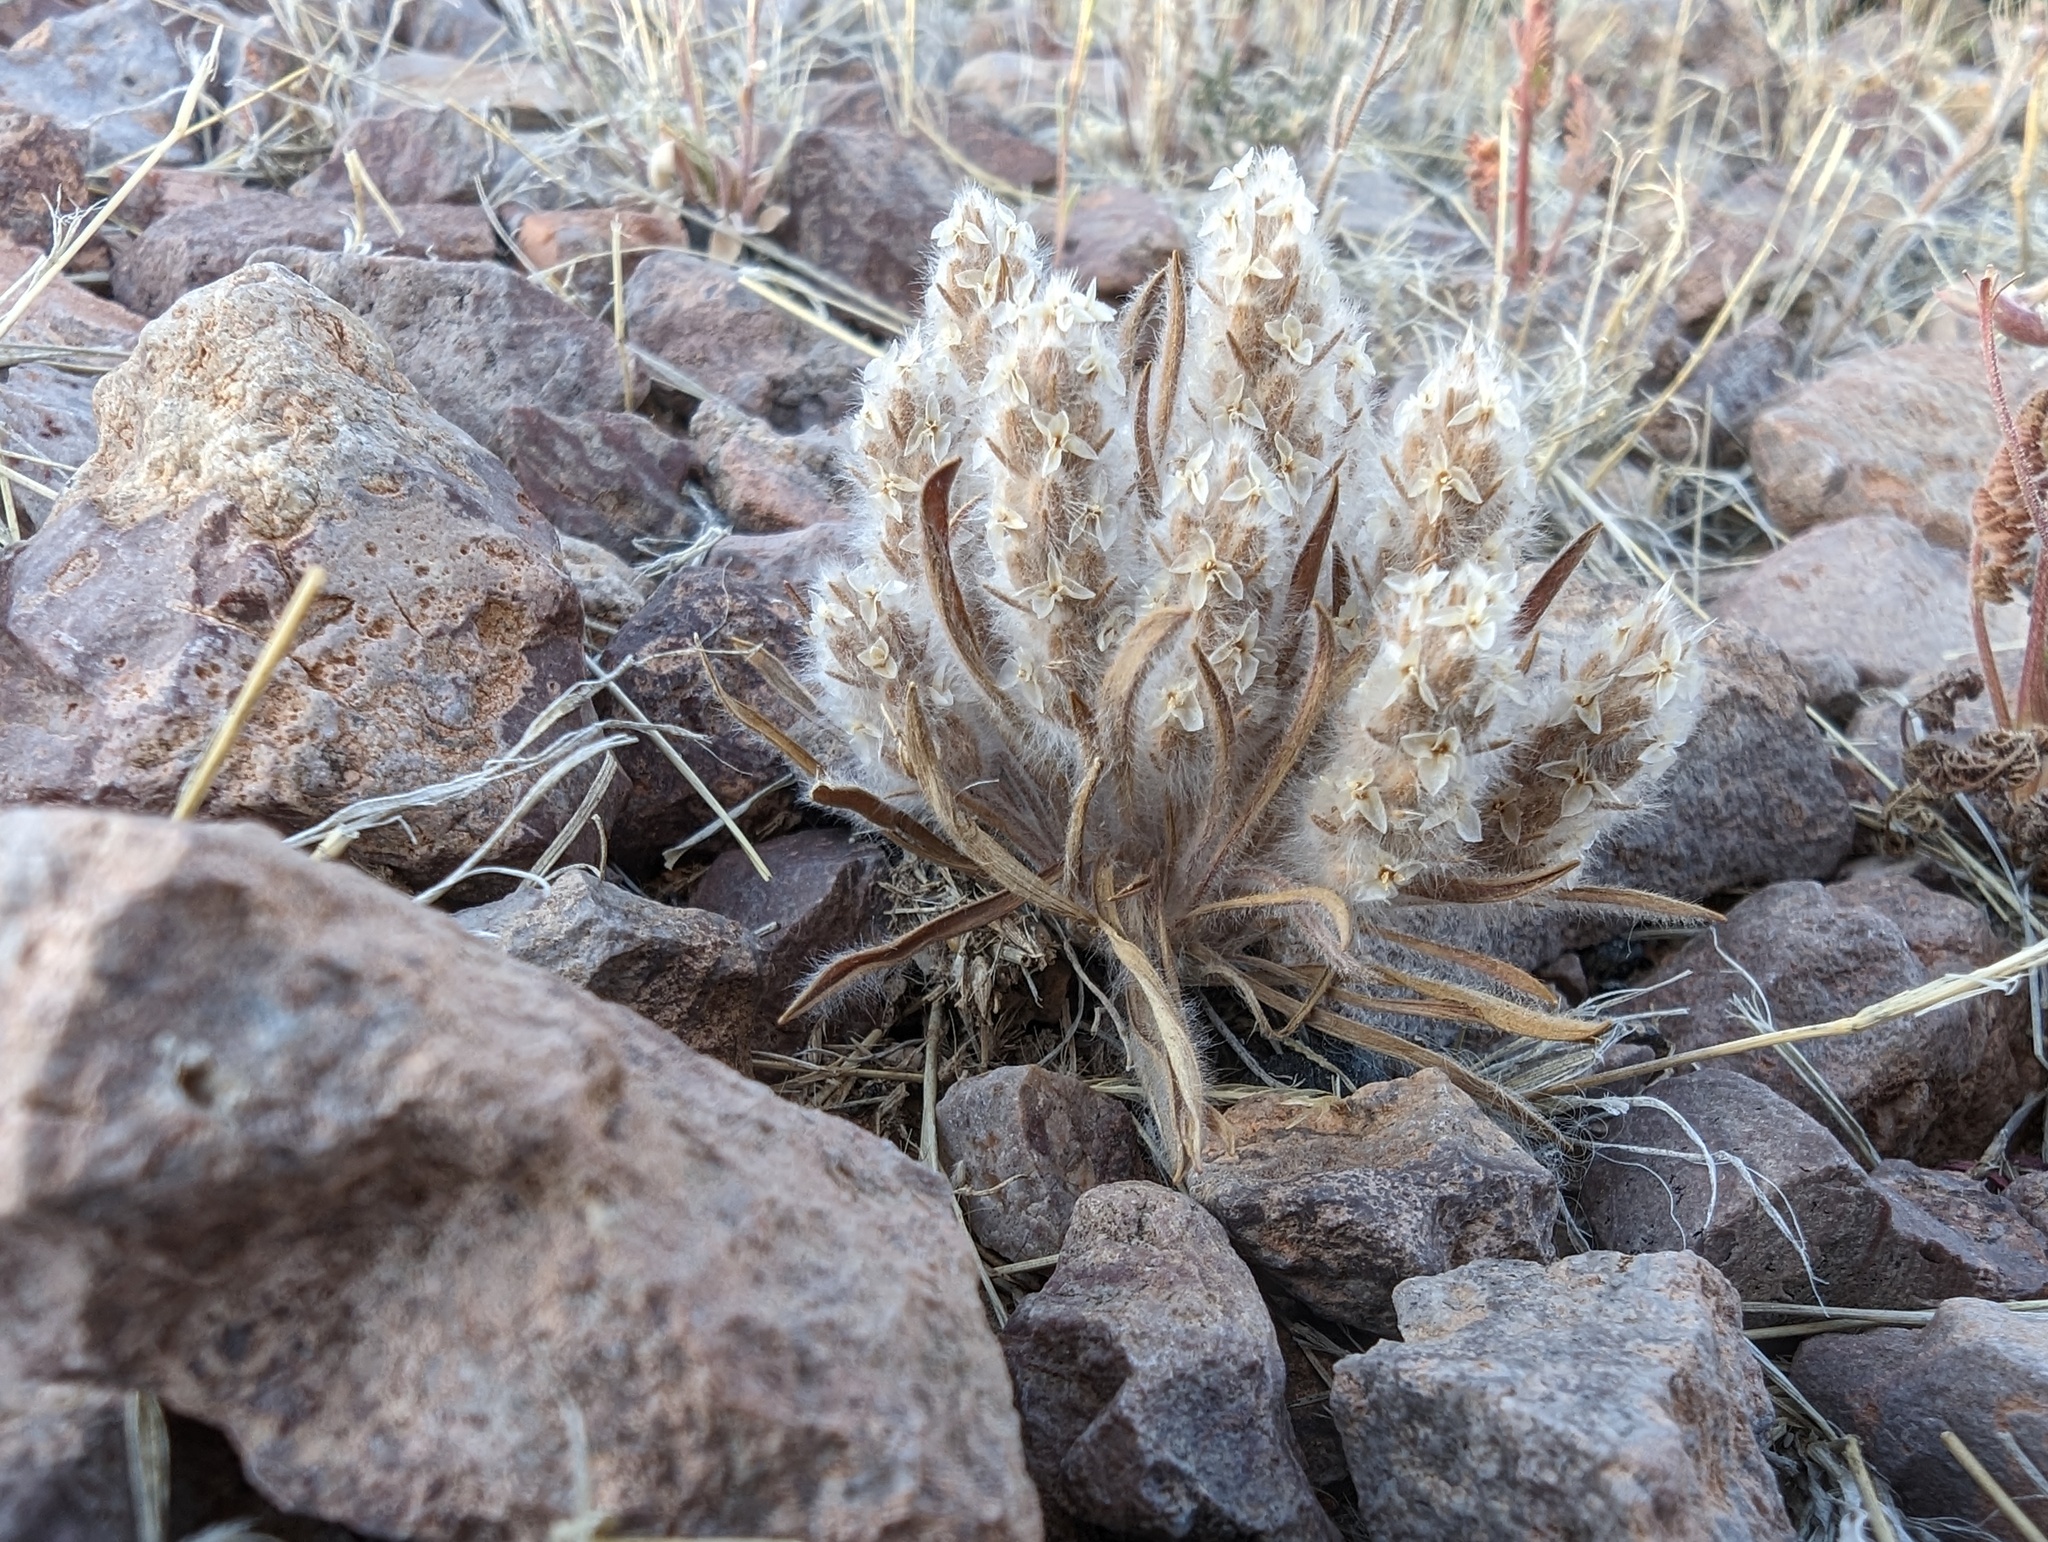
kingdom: Plantae
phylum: Tracheophyta
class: Magnoliopsida
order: Lamiales
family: Plantaginaceae
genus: Plantago
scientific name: Plantago patagonica
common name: Patagonia indian-wheat
